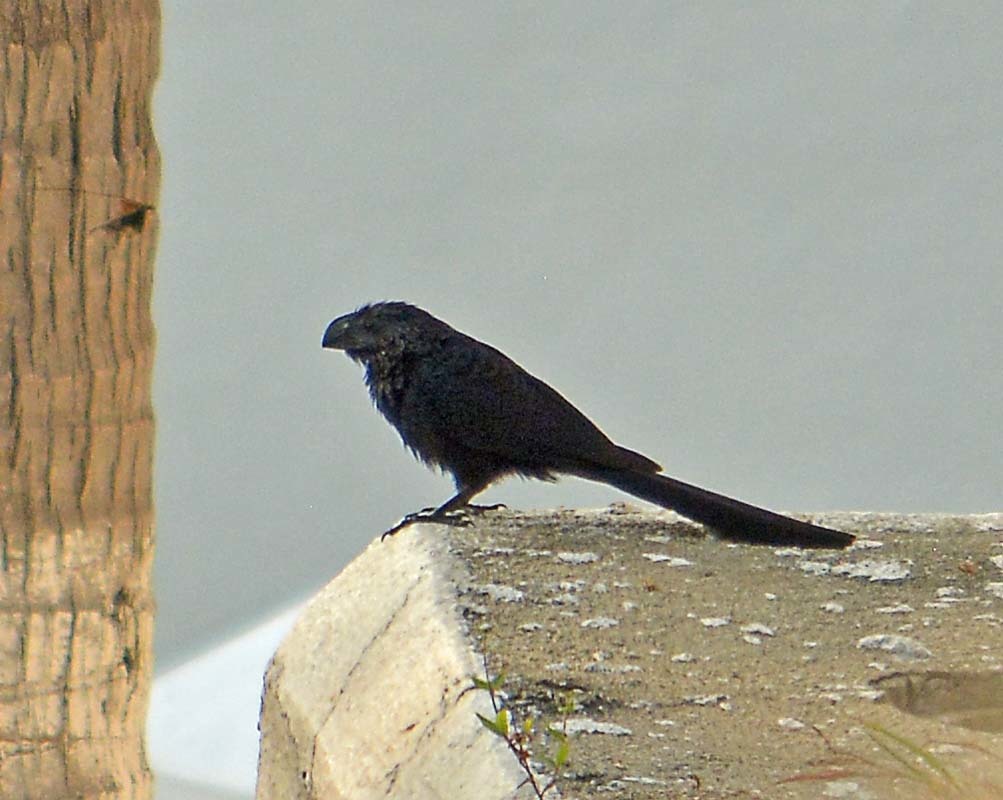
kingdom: Animalia
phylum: Chordata
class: Aves
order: Cuculiformes
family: Cuculidae
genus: Crotophaga
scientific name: Crotophaga sulcirostris
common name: Groove-billed ani
